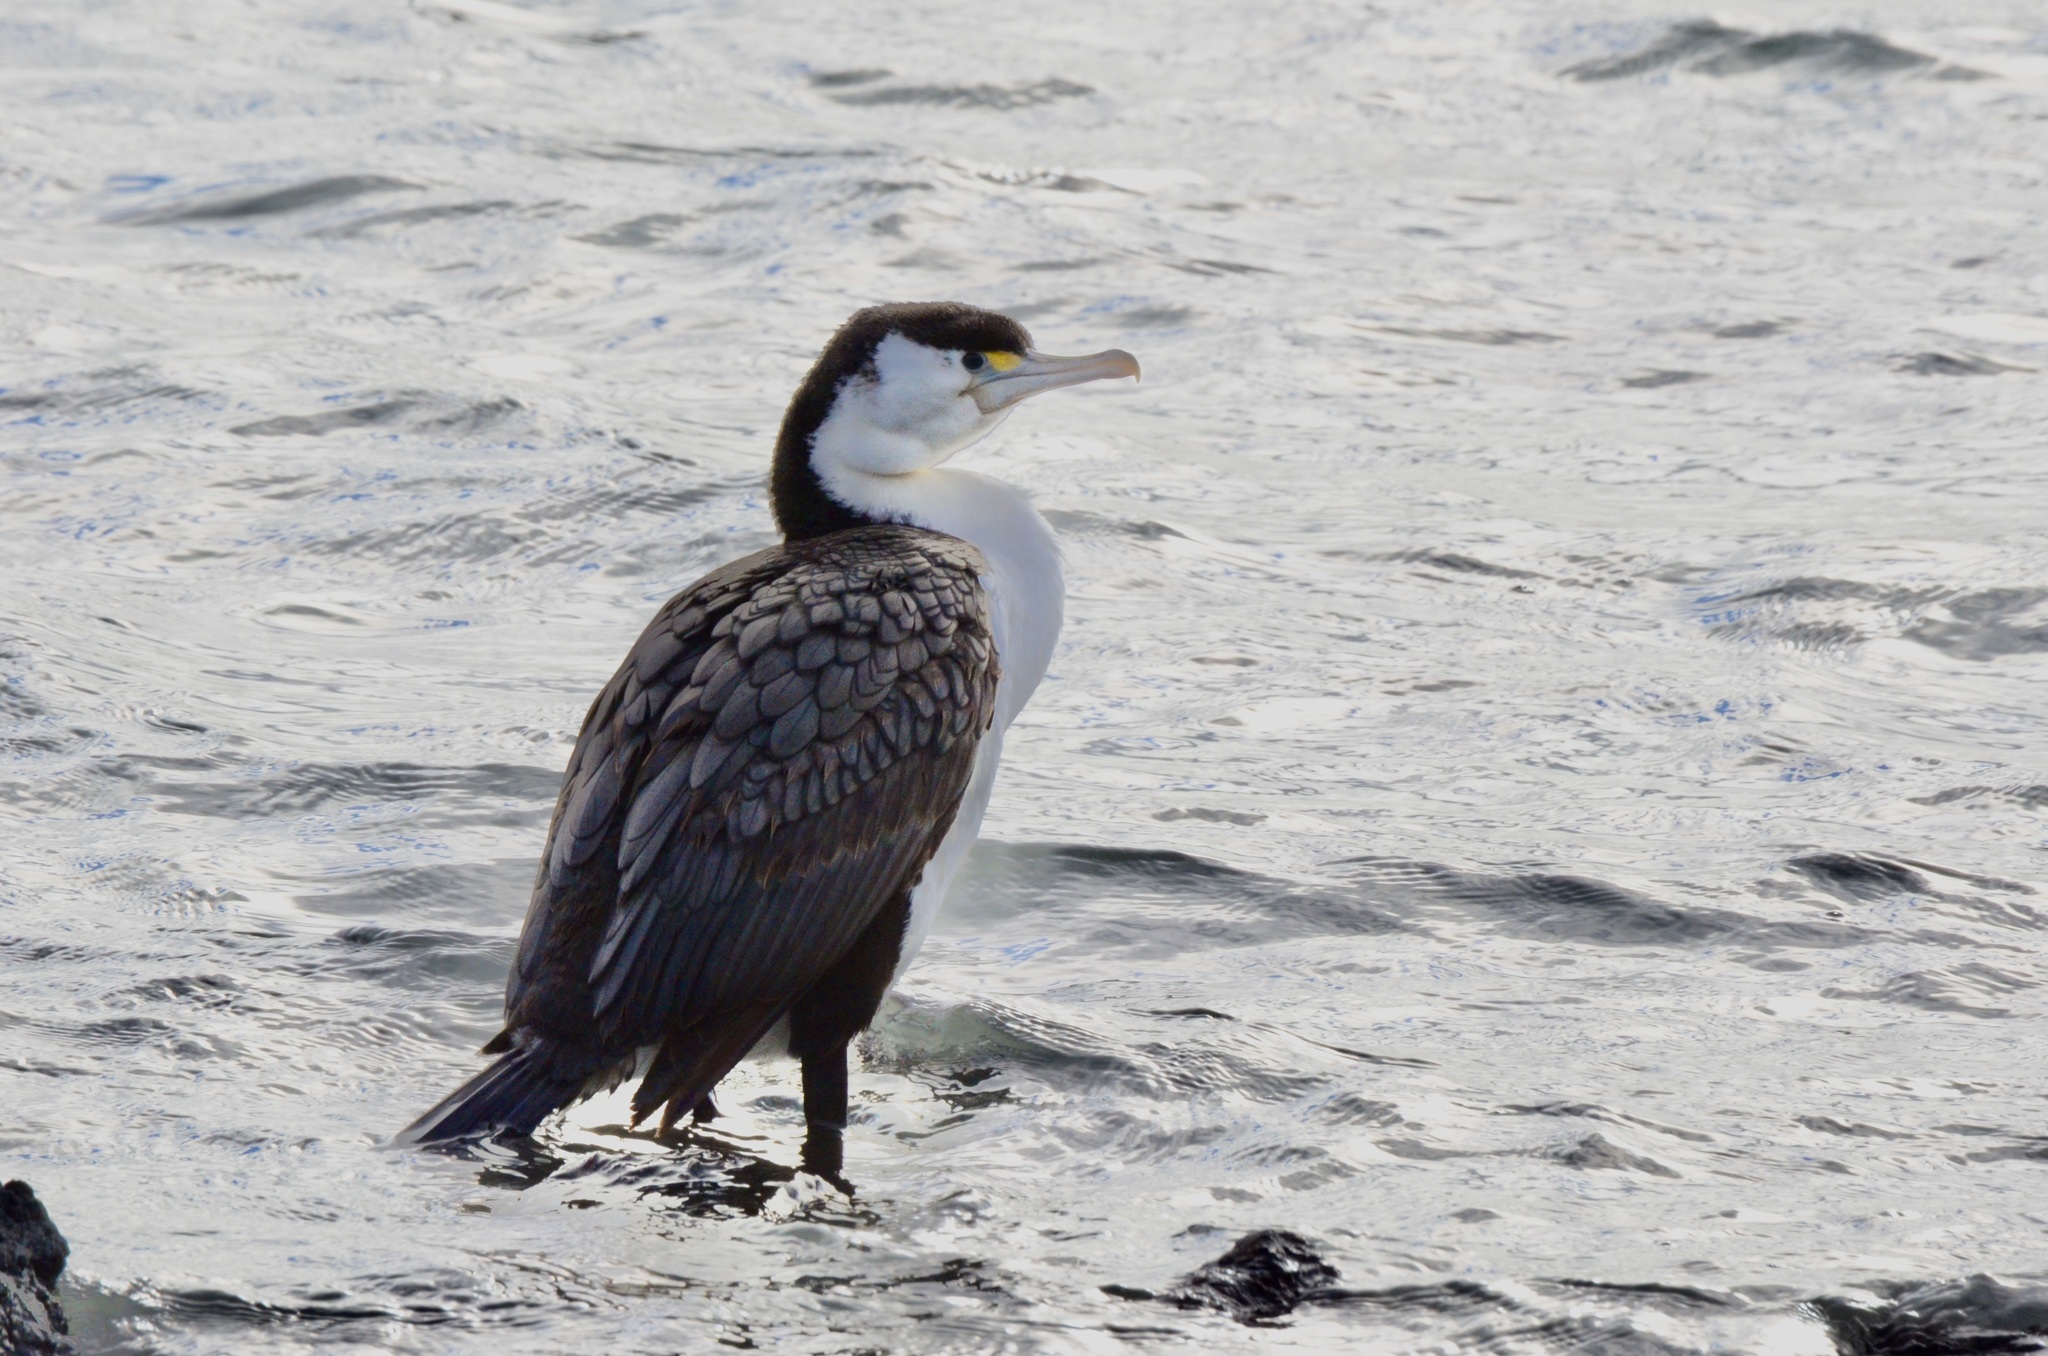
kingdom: Animalia
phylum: Chordata
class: Aves
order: Suliformes
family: Phalacrocoracidae
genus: Phalacrocorax
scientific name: Phalacrocorax varius
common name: Pied cormorant
